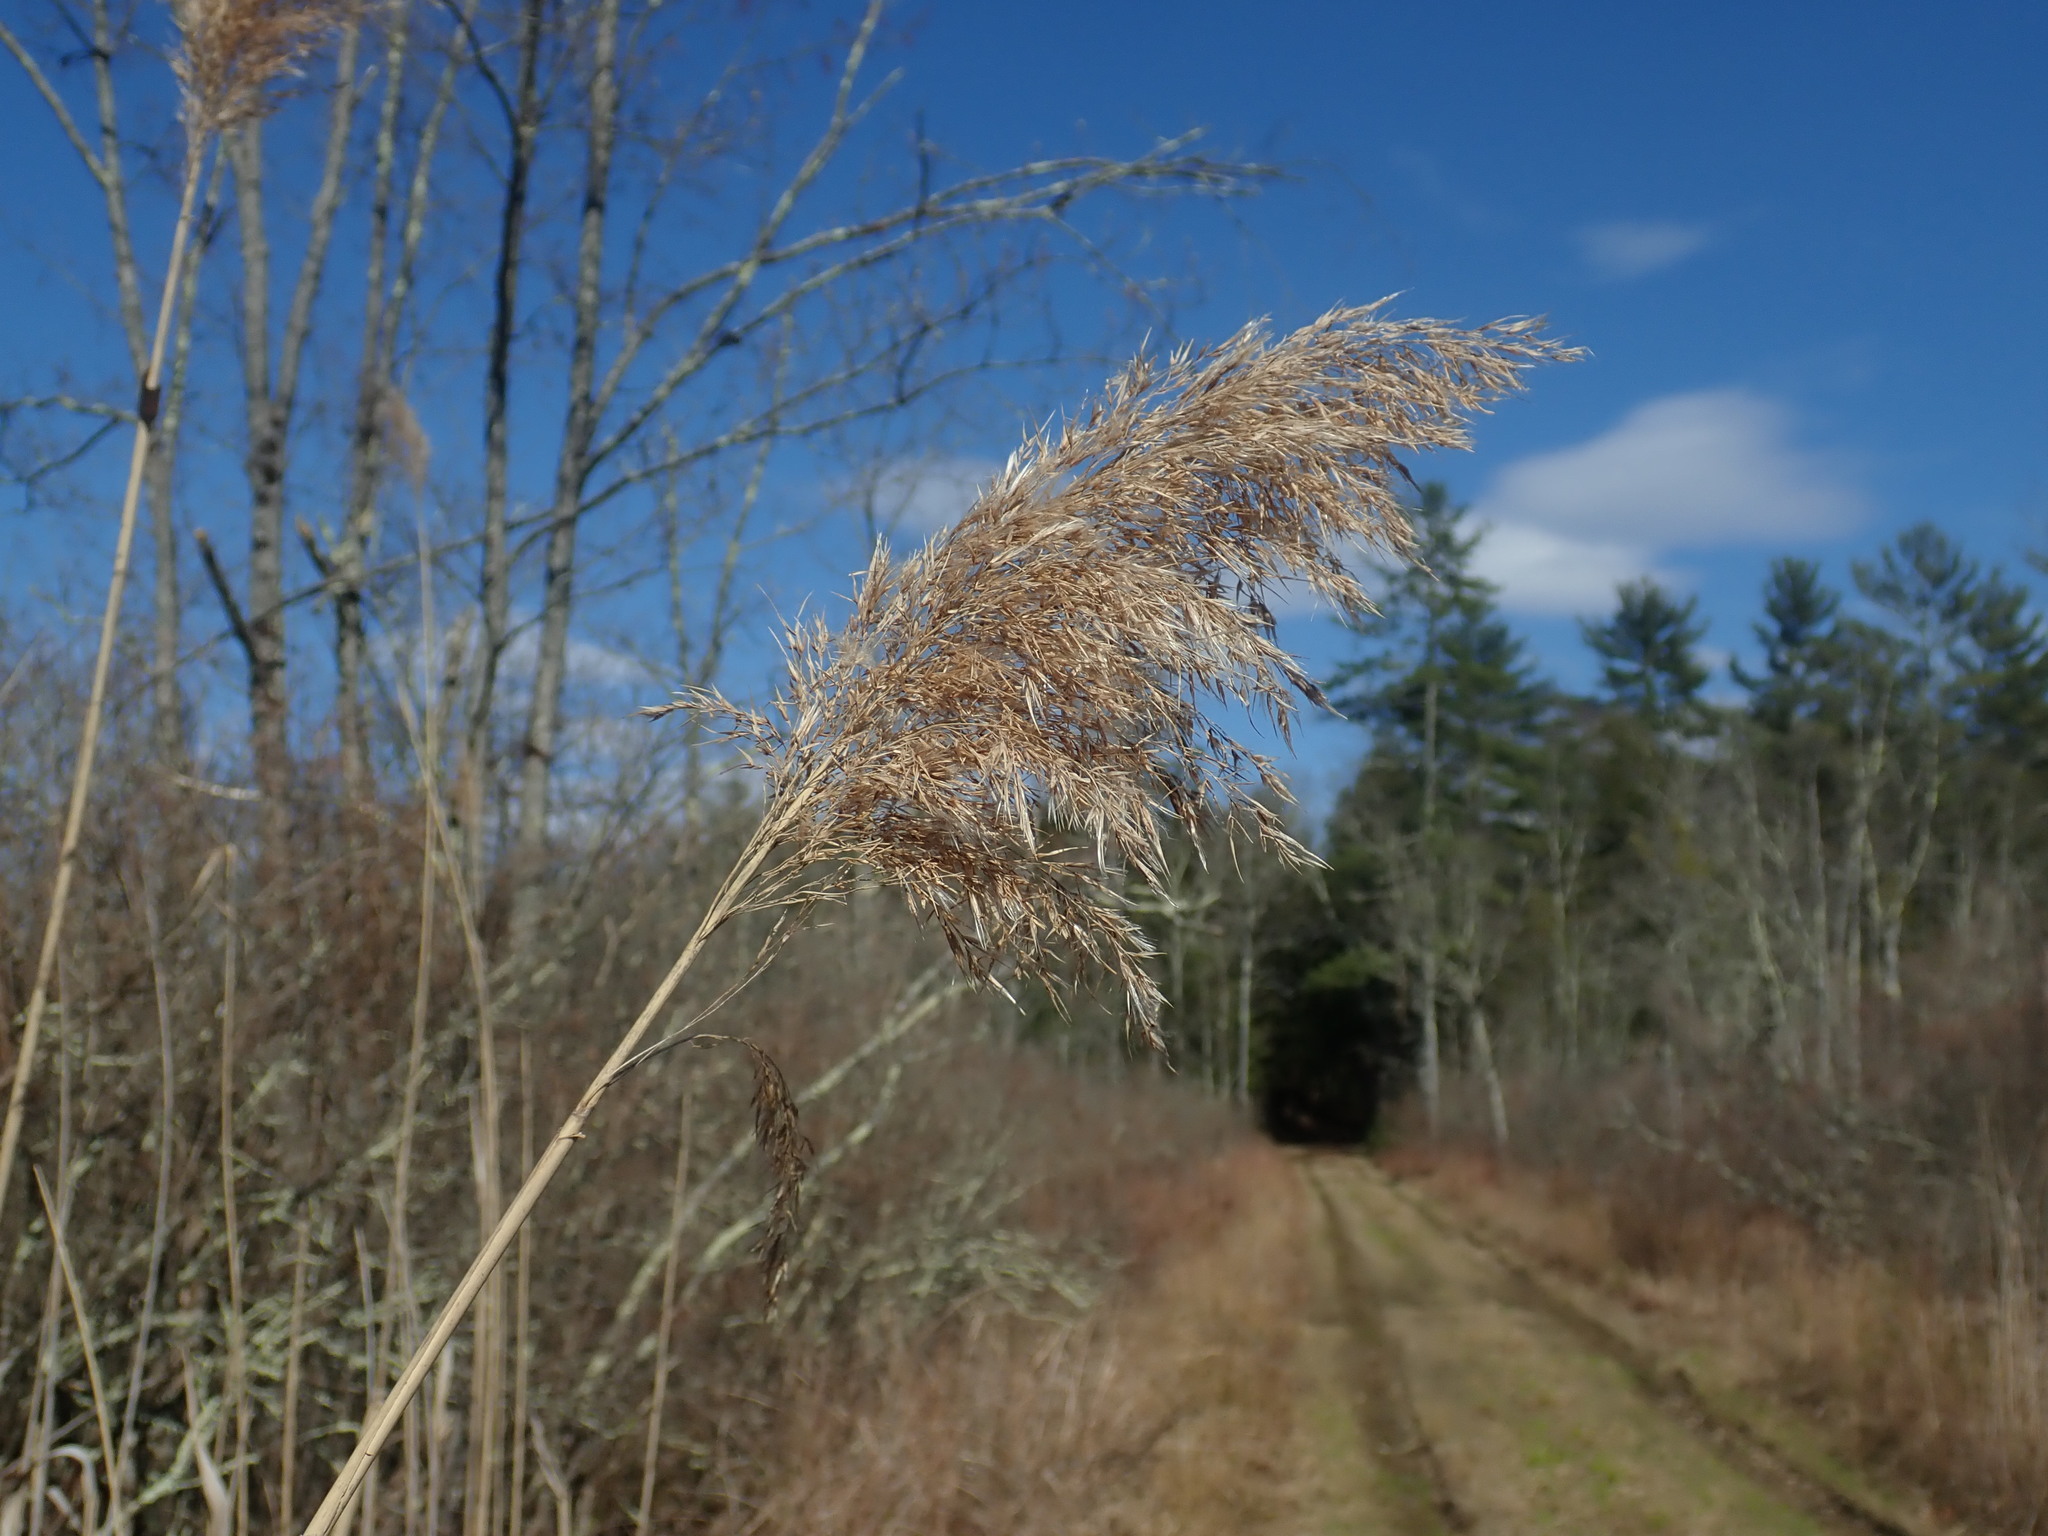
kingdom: Plantae
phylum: Tracheophyta
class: Liliopsida
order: Poales
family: Poaceae
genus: Phragmites
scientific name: Phragmites australis
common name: Common reed
